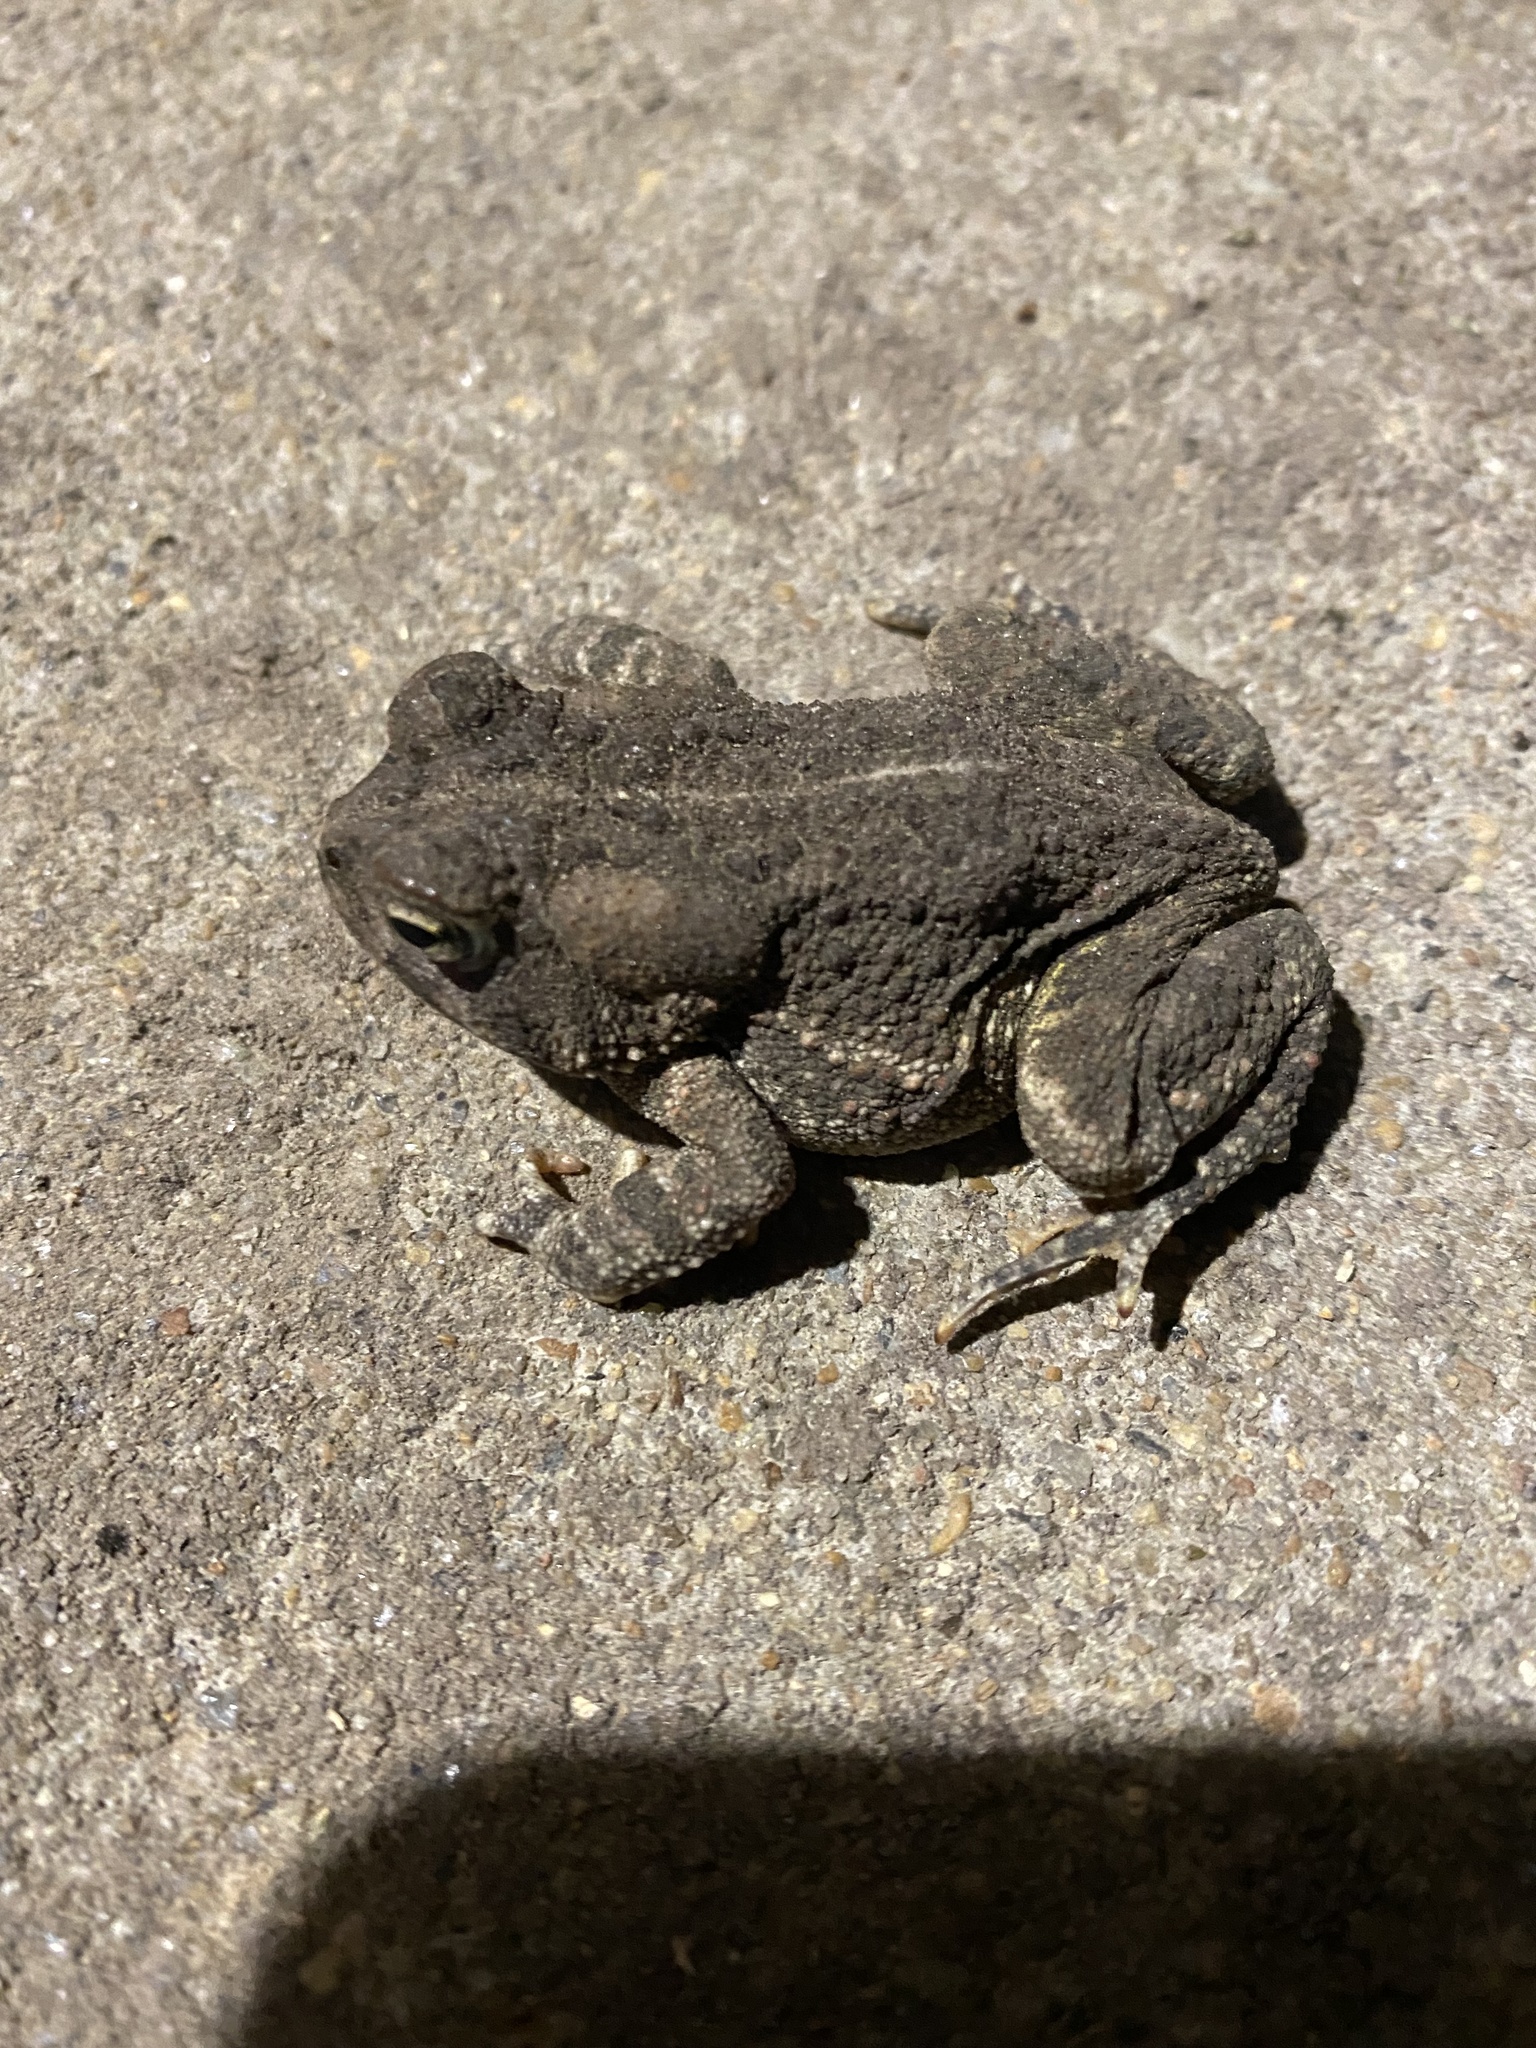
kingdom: Animalia
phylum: Chordata
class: Amphibia
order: Anura
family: Bufonidae
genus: Anaxyrus
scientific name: Anaxyrus fowleri
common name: Fowler's toad
